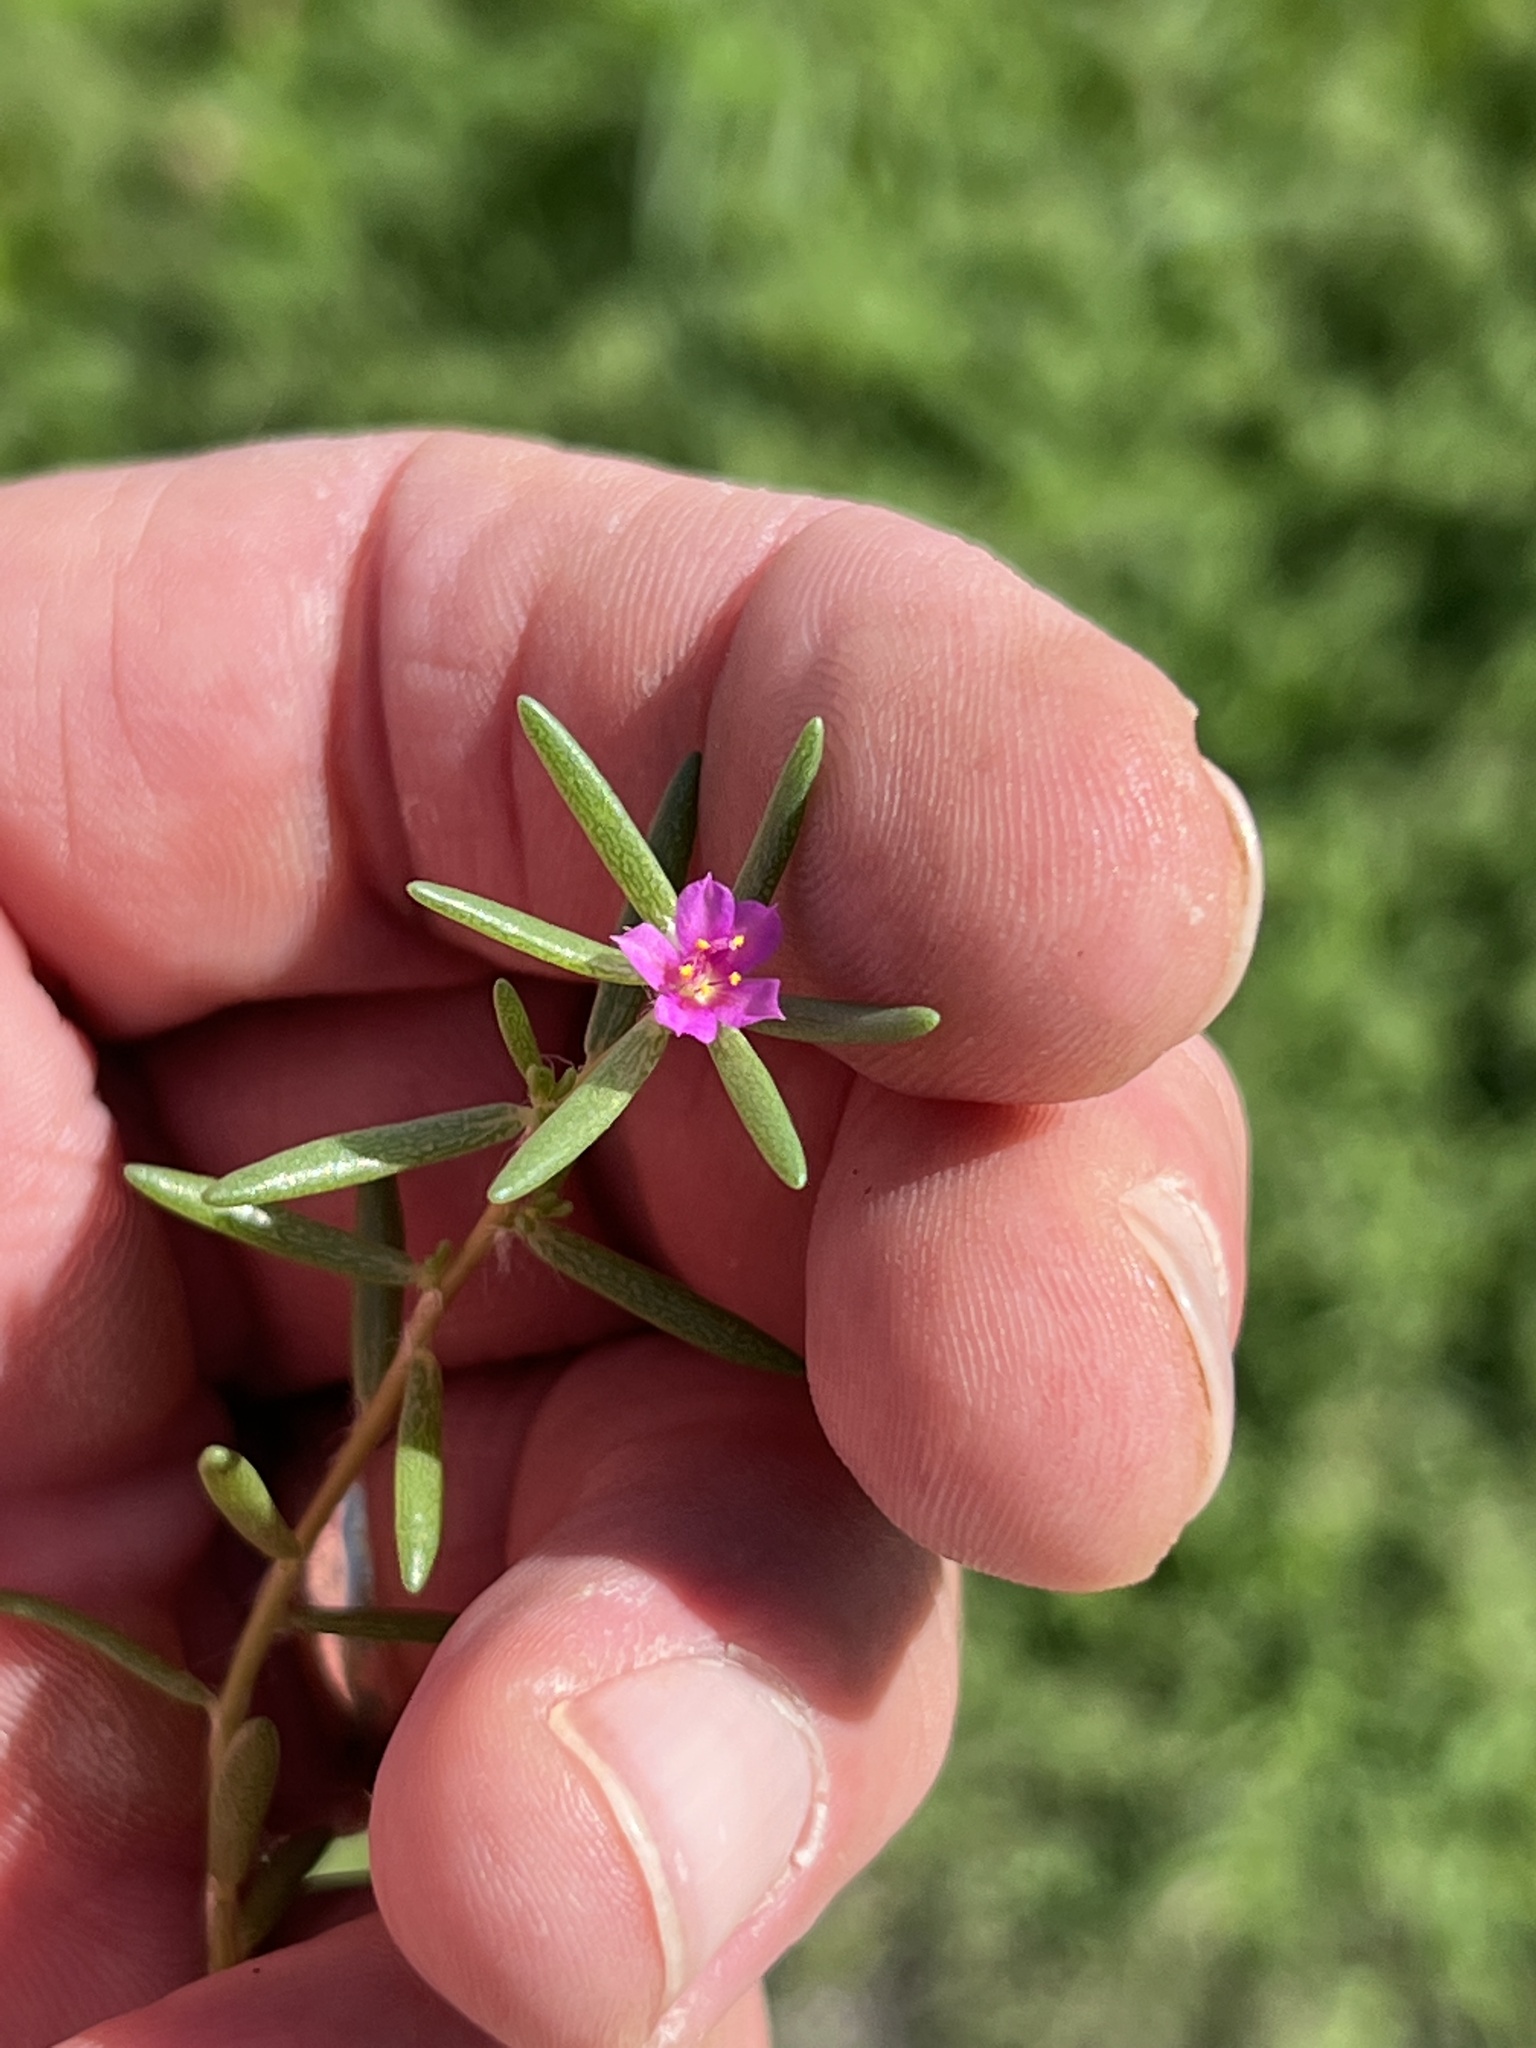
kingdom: Plantae
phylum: Tracheophyta
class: Magnoliopsida
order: Caryophyllales
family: Portulacaceae
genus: Portulaca
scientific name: Portulaca pilosa
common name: Kiss me quick
